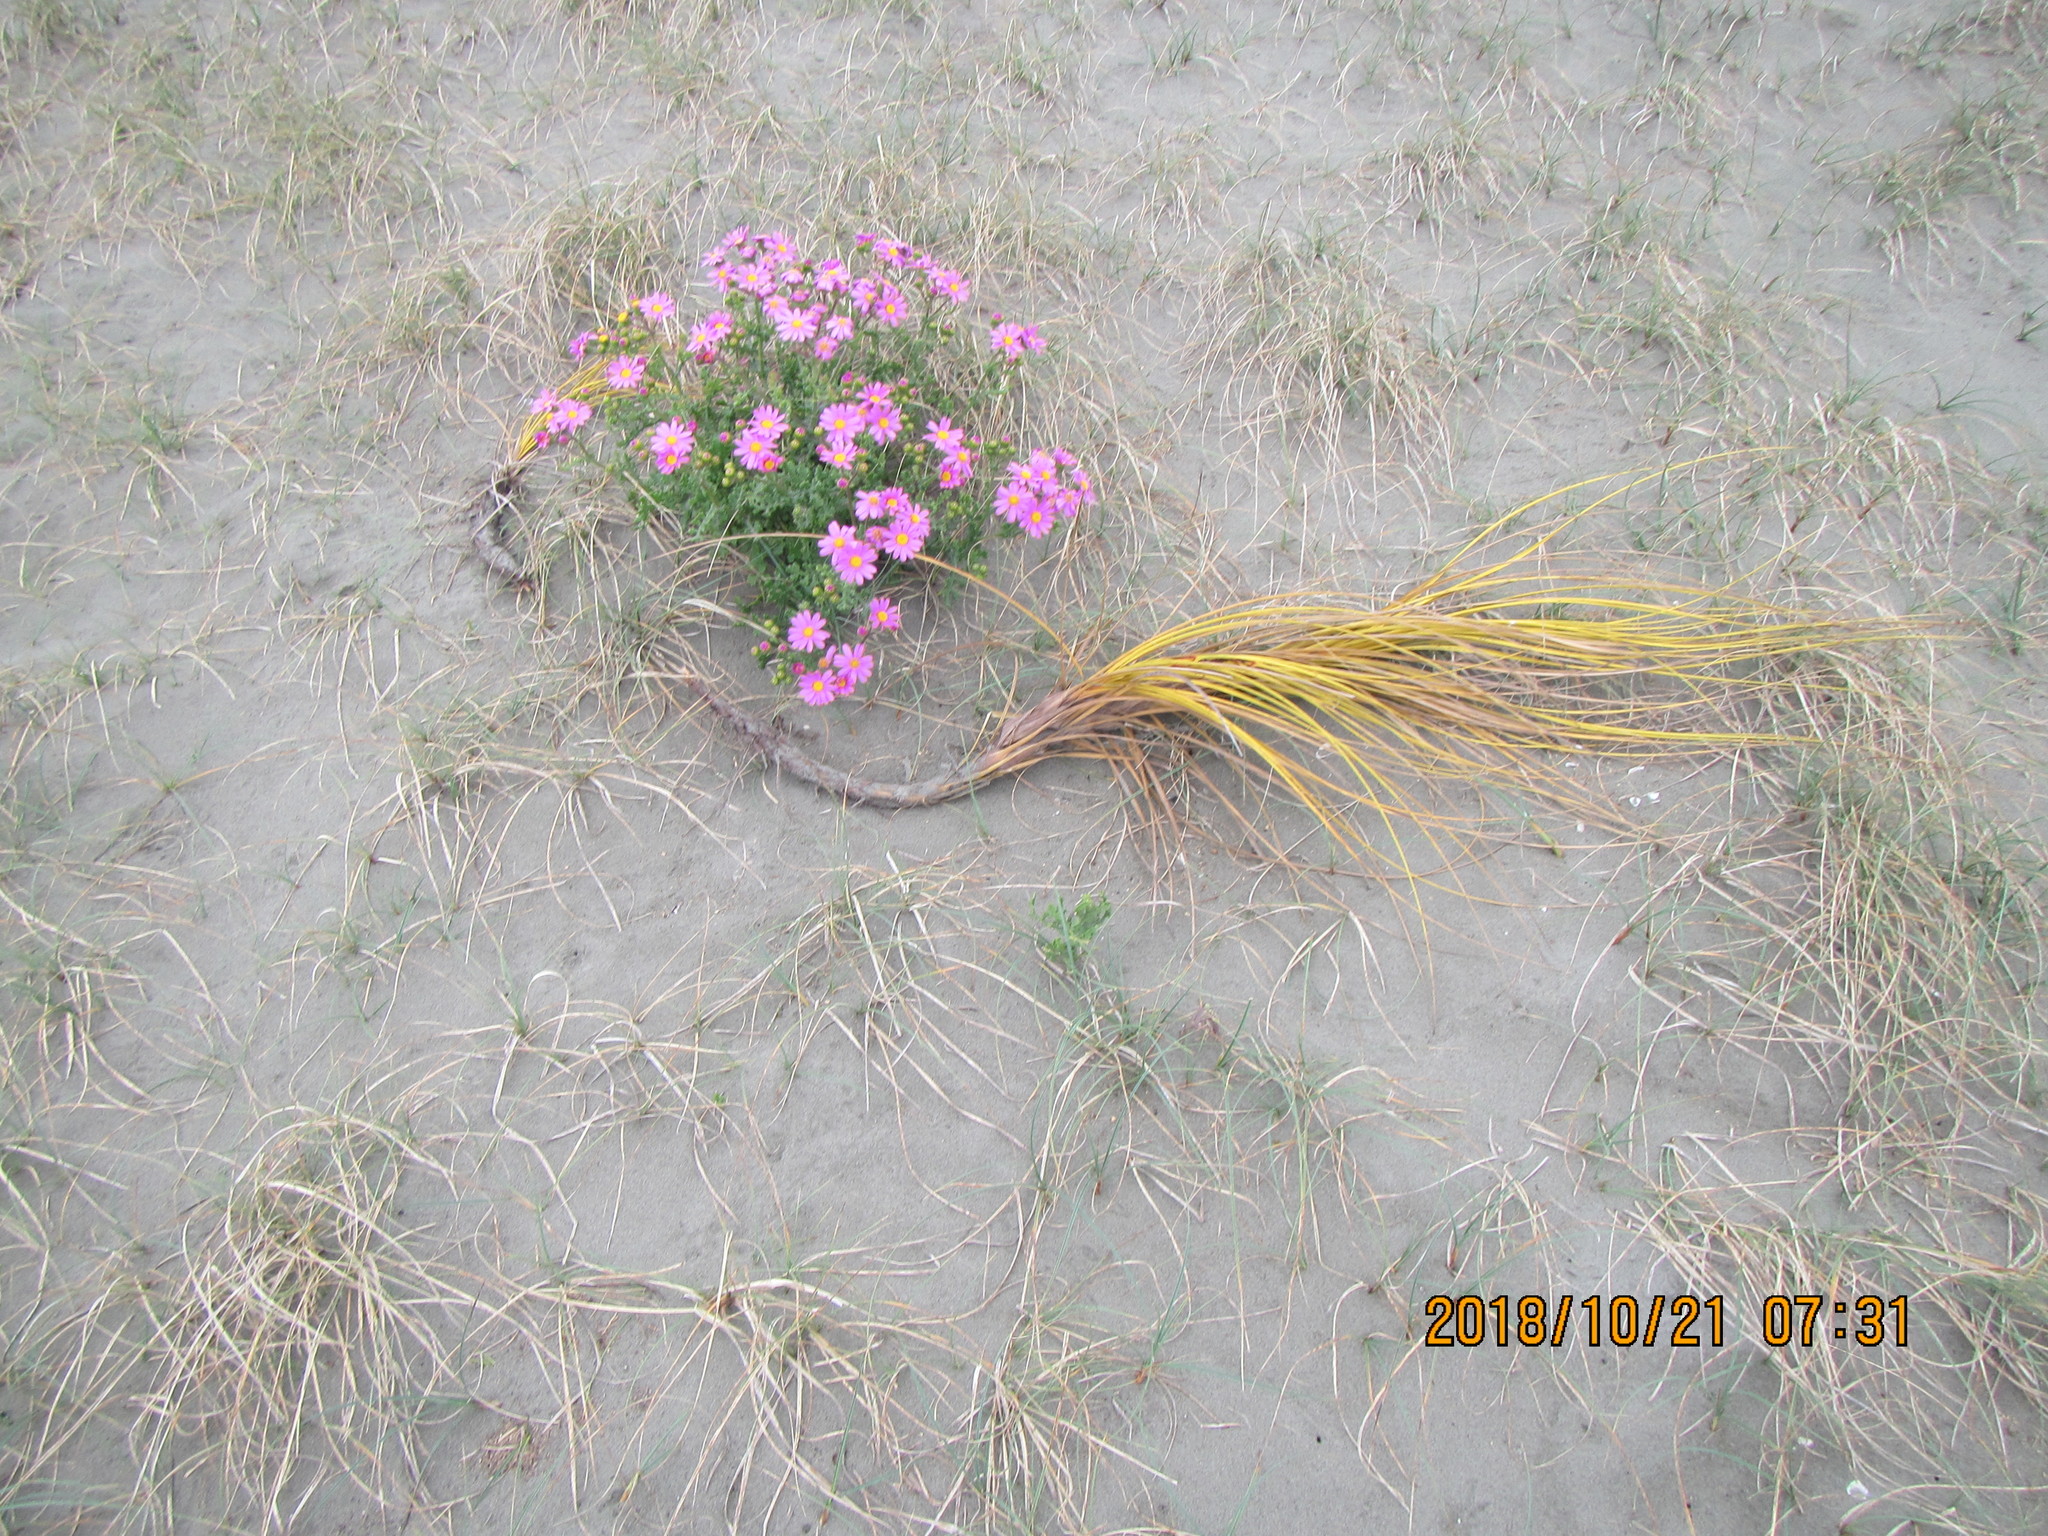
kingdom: Plantae
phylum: Tracheophyta
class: Magnoliopsida
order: Asterales
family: Asteraceae
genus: Senecio
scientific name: Senecio elegans
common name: Purple groundsel
